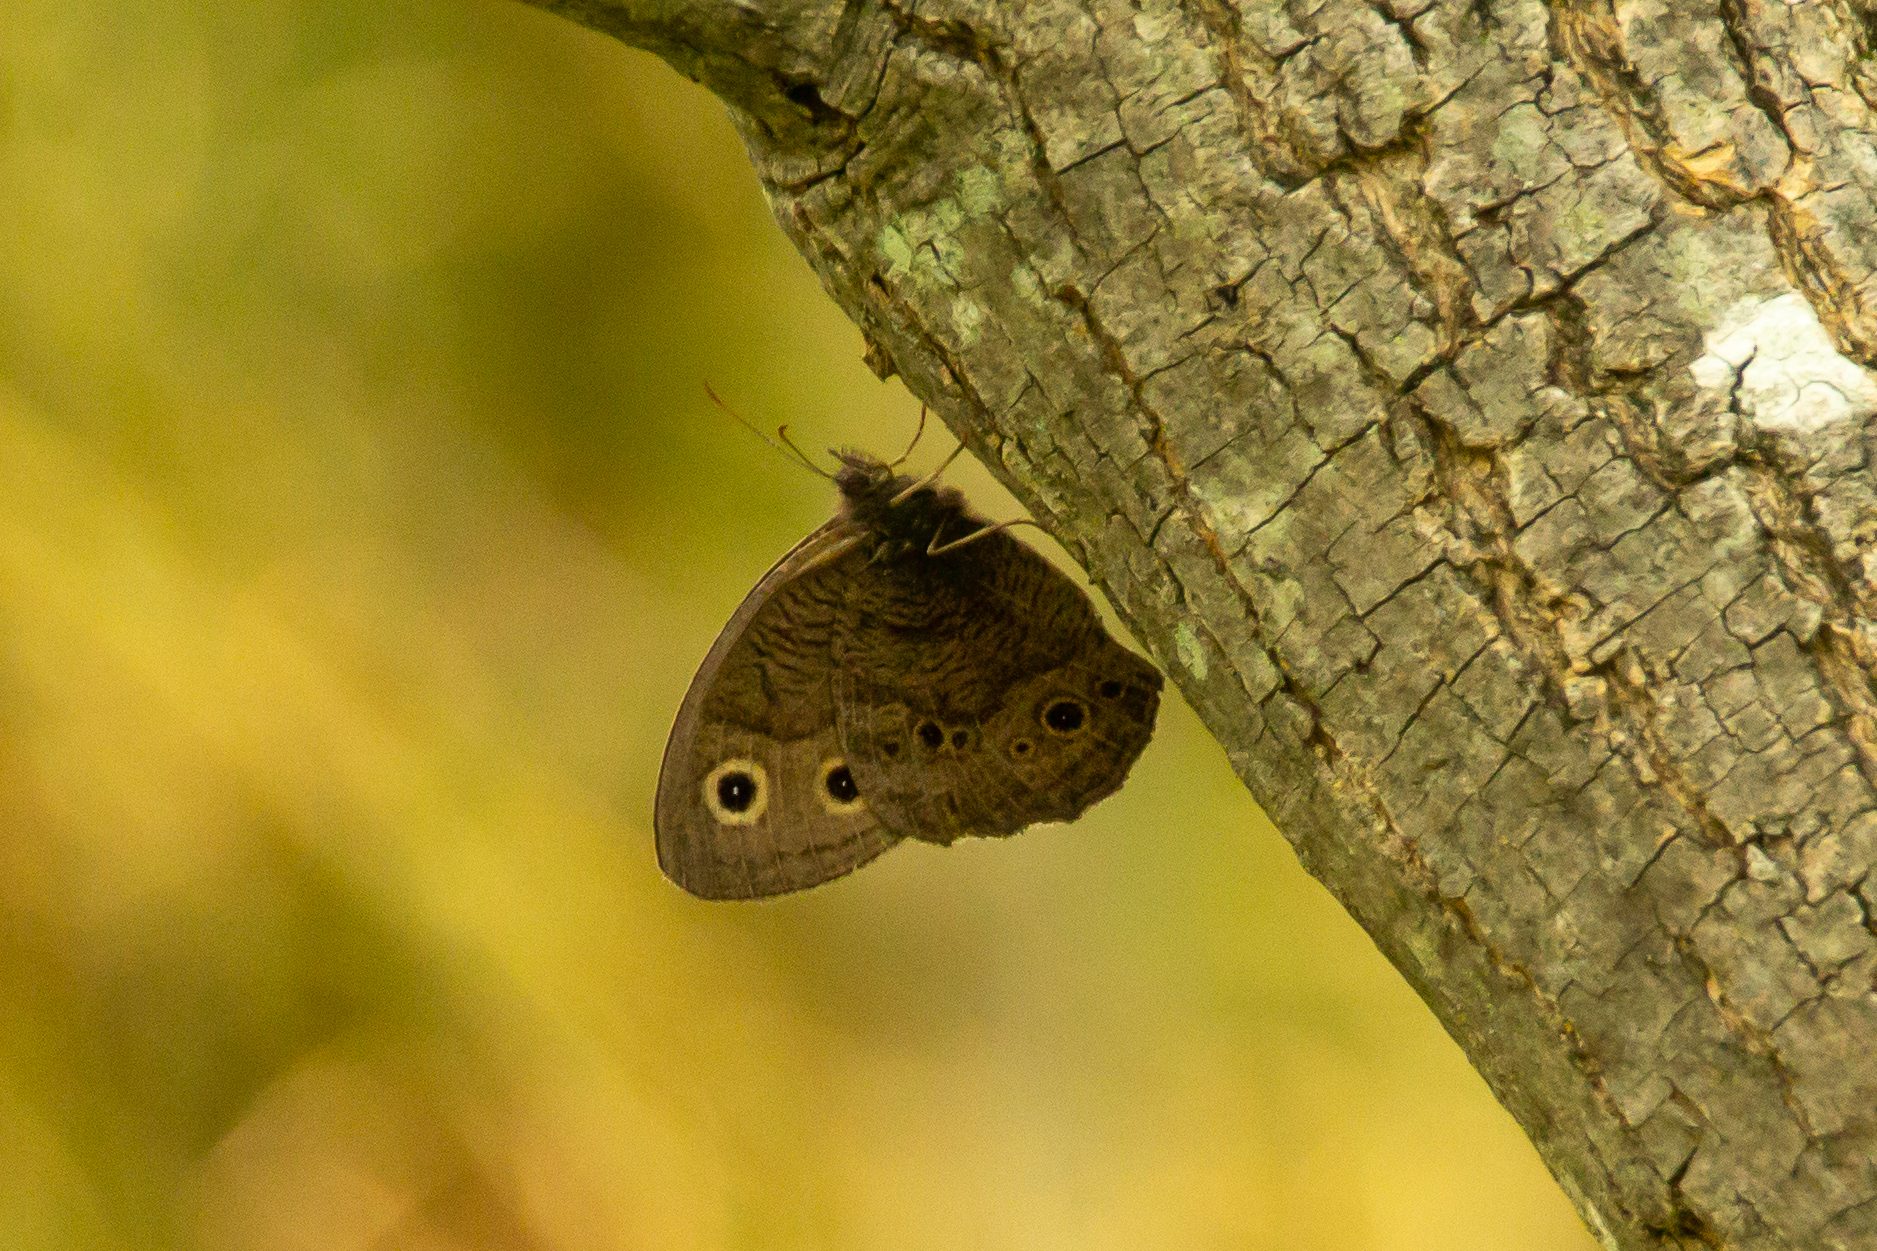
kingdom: Animalia
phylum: Arthropoda
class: Insecta
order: Lepidoptera
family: Nymphalidae
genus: Cercyonis
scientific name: Cercyonis pegala
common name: Common wood-nymph
